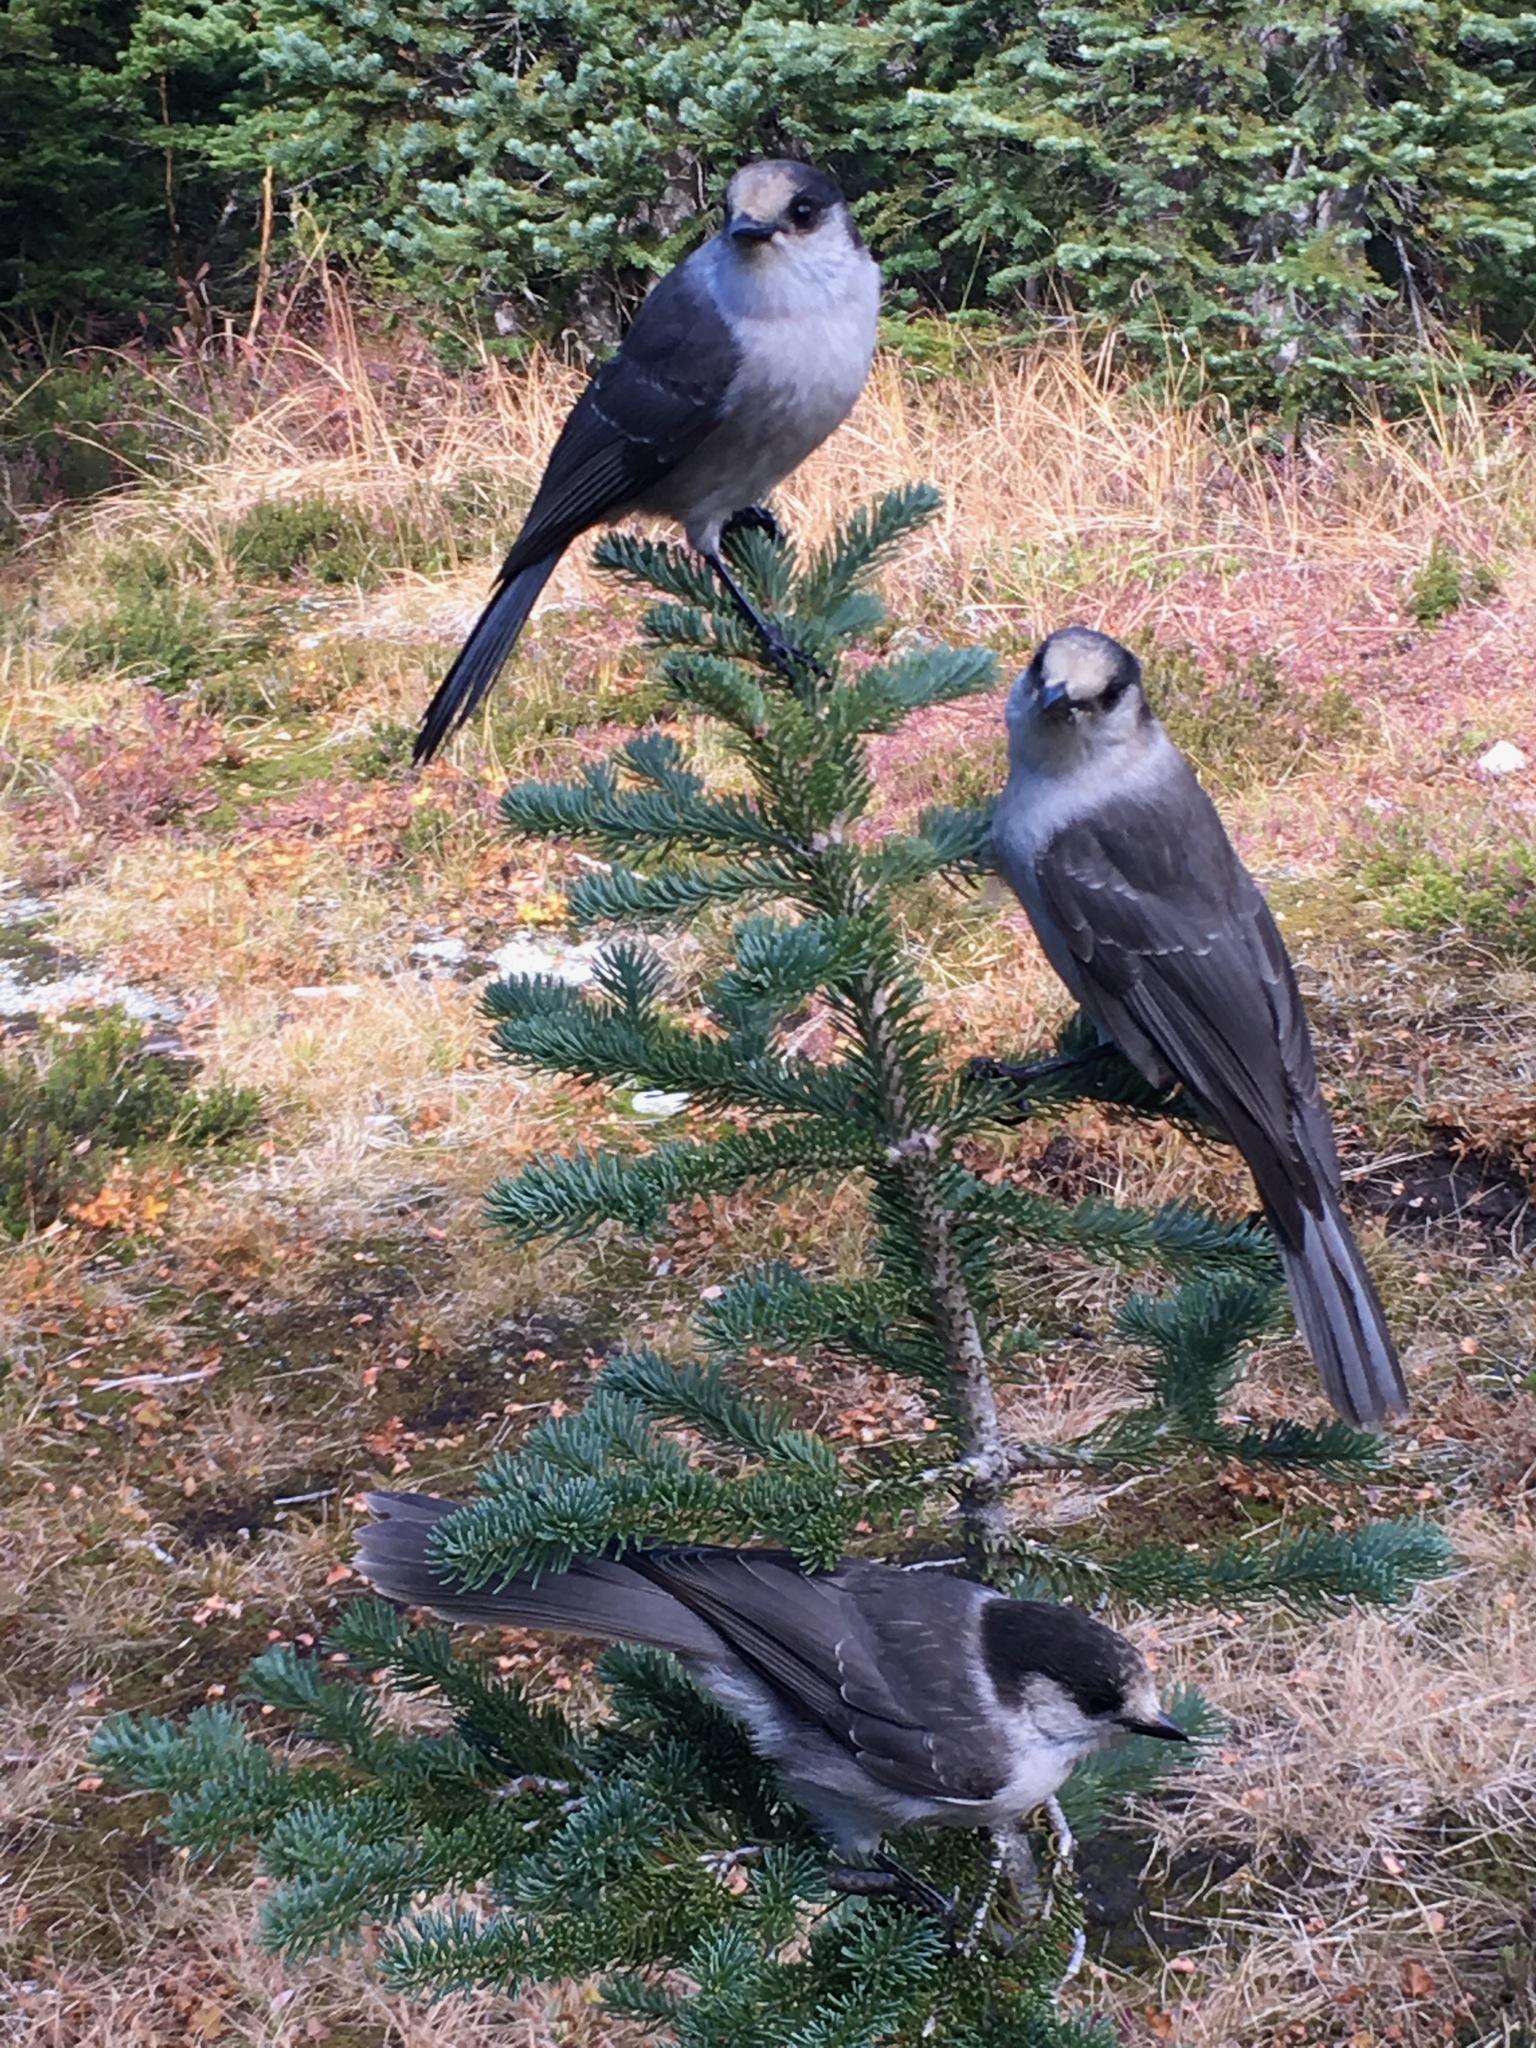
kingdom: Animalia
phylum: Chordata
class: Aves
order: Passeriformes
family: Corvidae
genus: Perisoreus
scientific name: Perisoreus canadensis
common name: Gray jay
